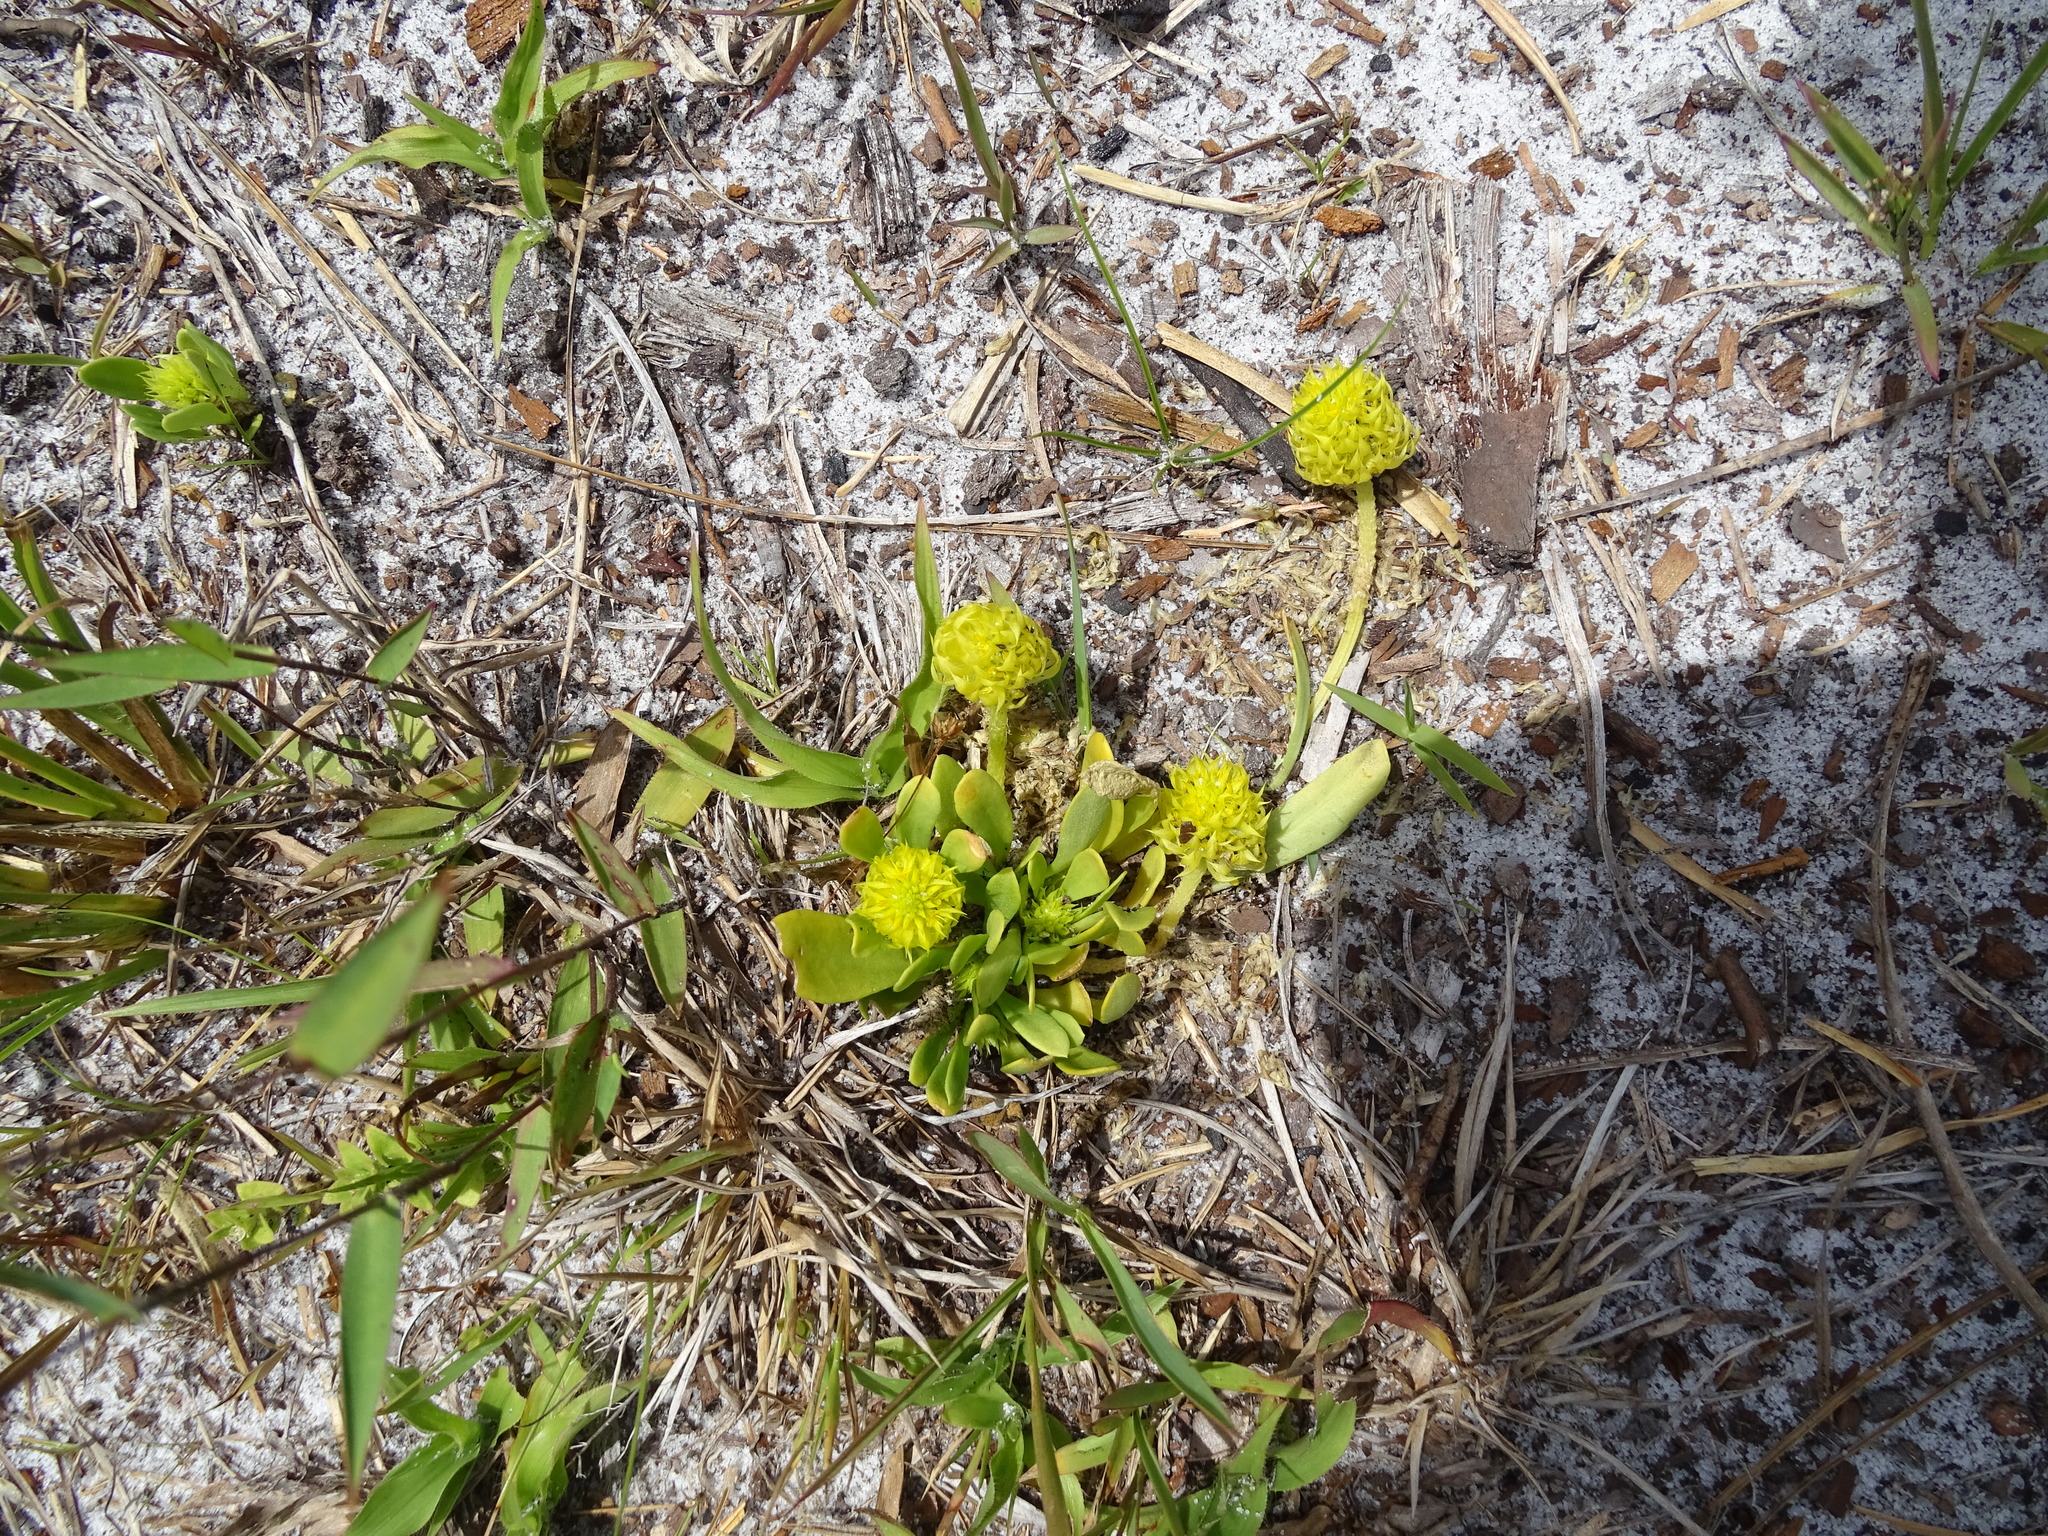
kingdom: Plantae
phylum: Tracheophyta
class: Magnoliopsida
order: Fabales
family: Polygalaceae
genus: Polygala
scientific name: Polygala nana
